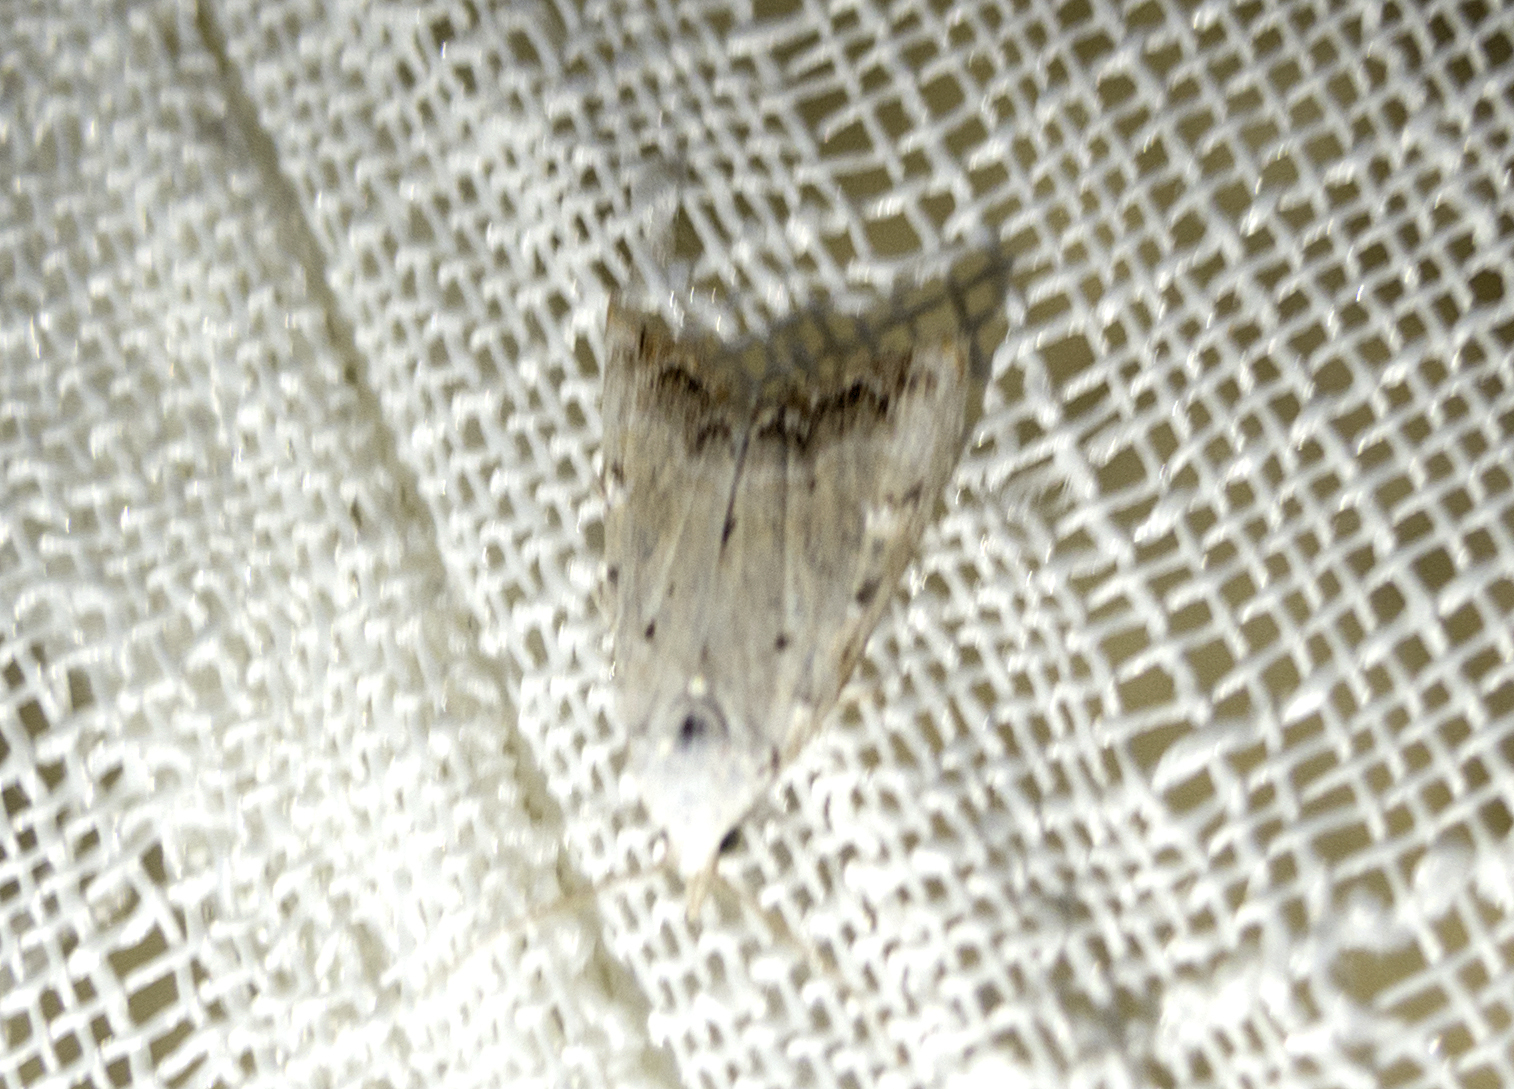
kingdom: Animalia
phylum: Arthropoda
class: Insecta
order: Lepidoptera
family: Nolidae
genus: Nola
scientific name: Nola chlamitulalis
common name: Jersey black arches
